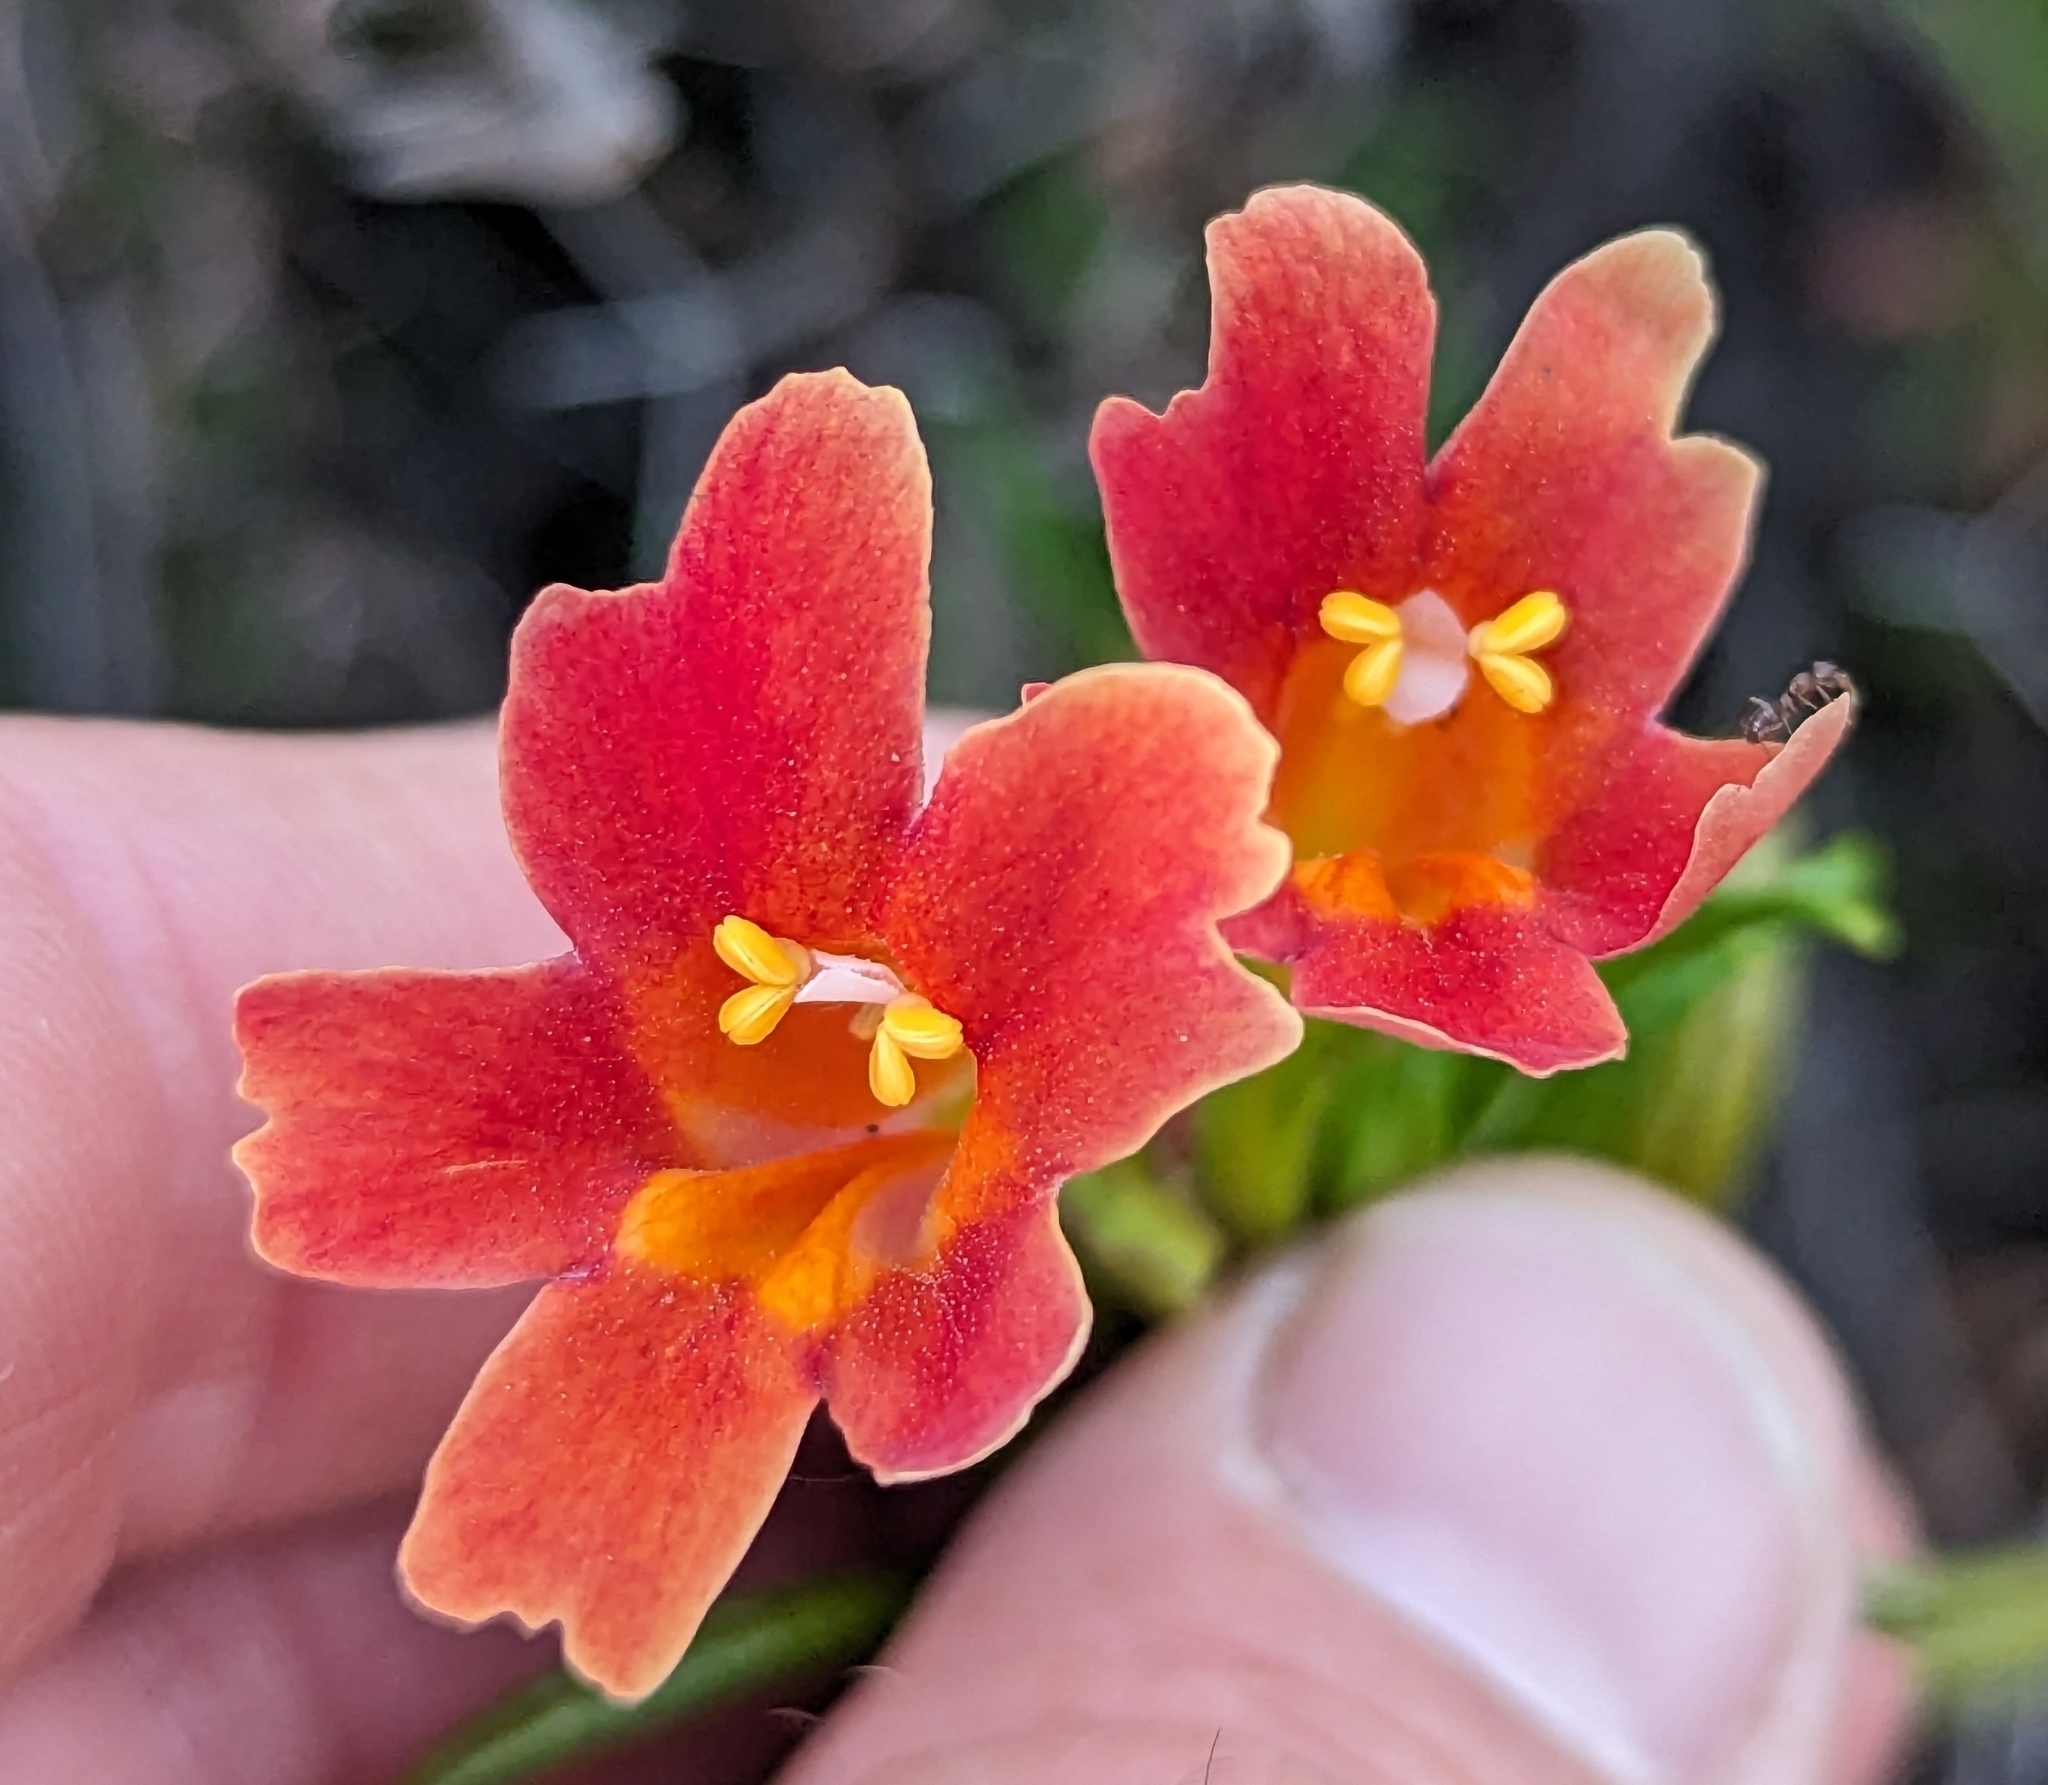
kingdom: Plantae
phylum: Tracheophyta
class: Magnoliopsida
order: Lamiales
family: Phrymaceae
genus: Diplacus
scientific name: Diplacus puniceus
